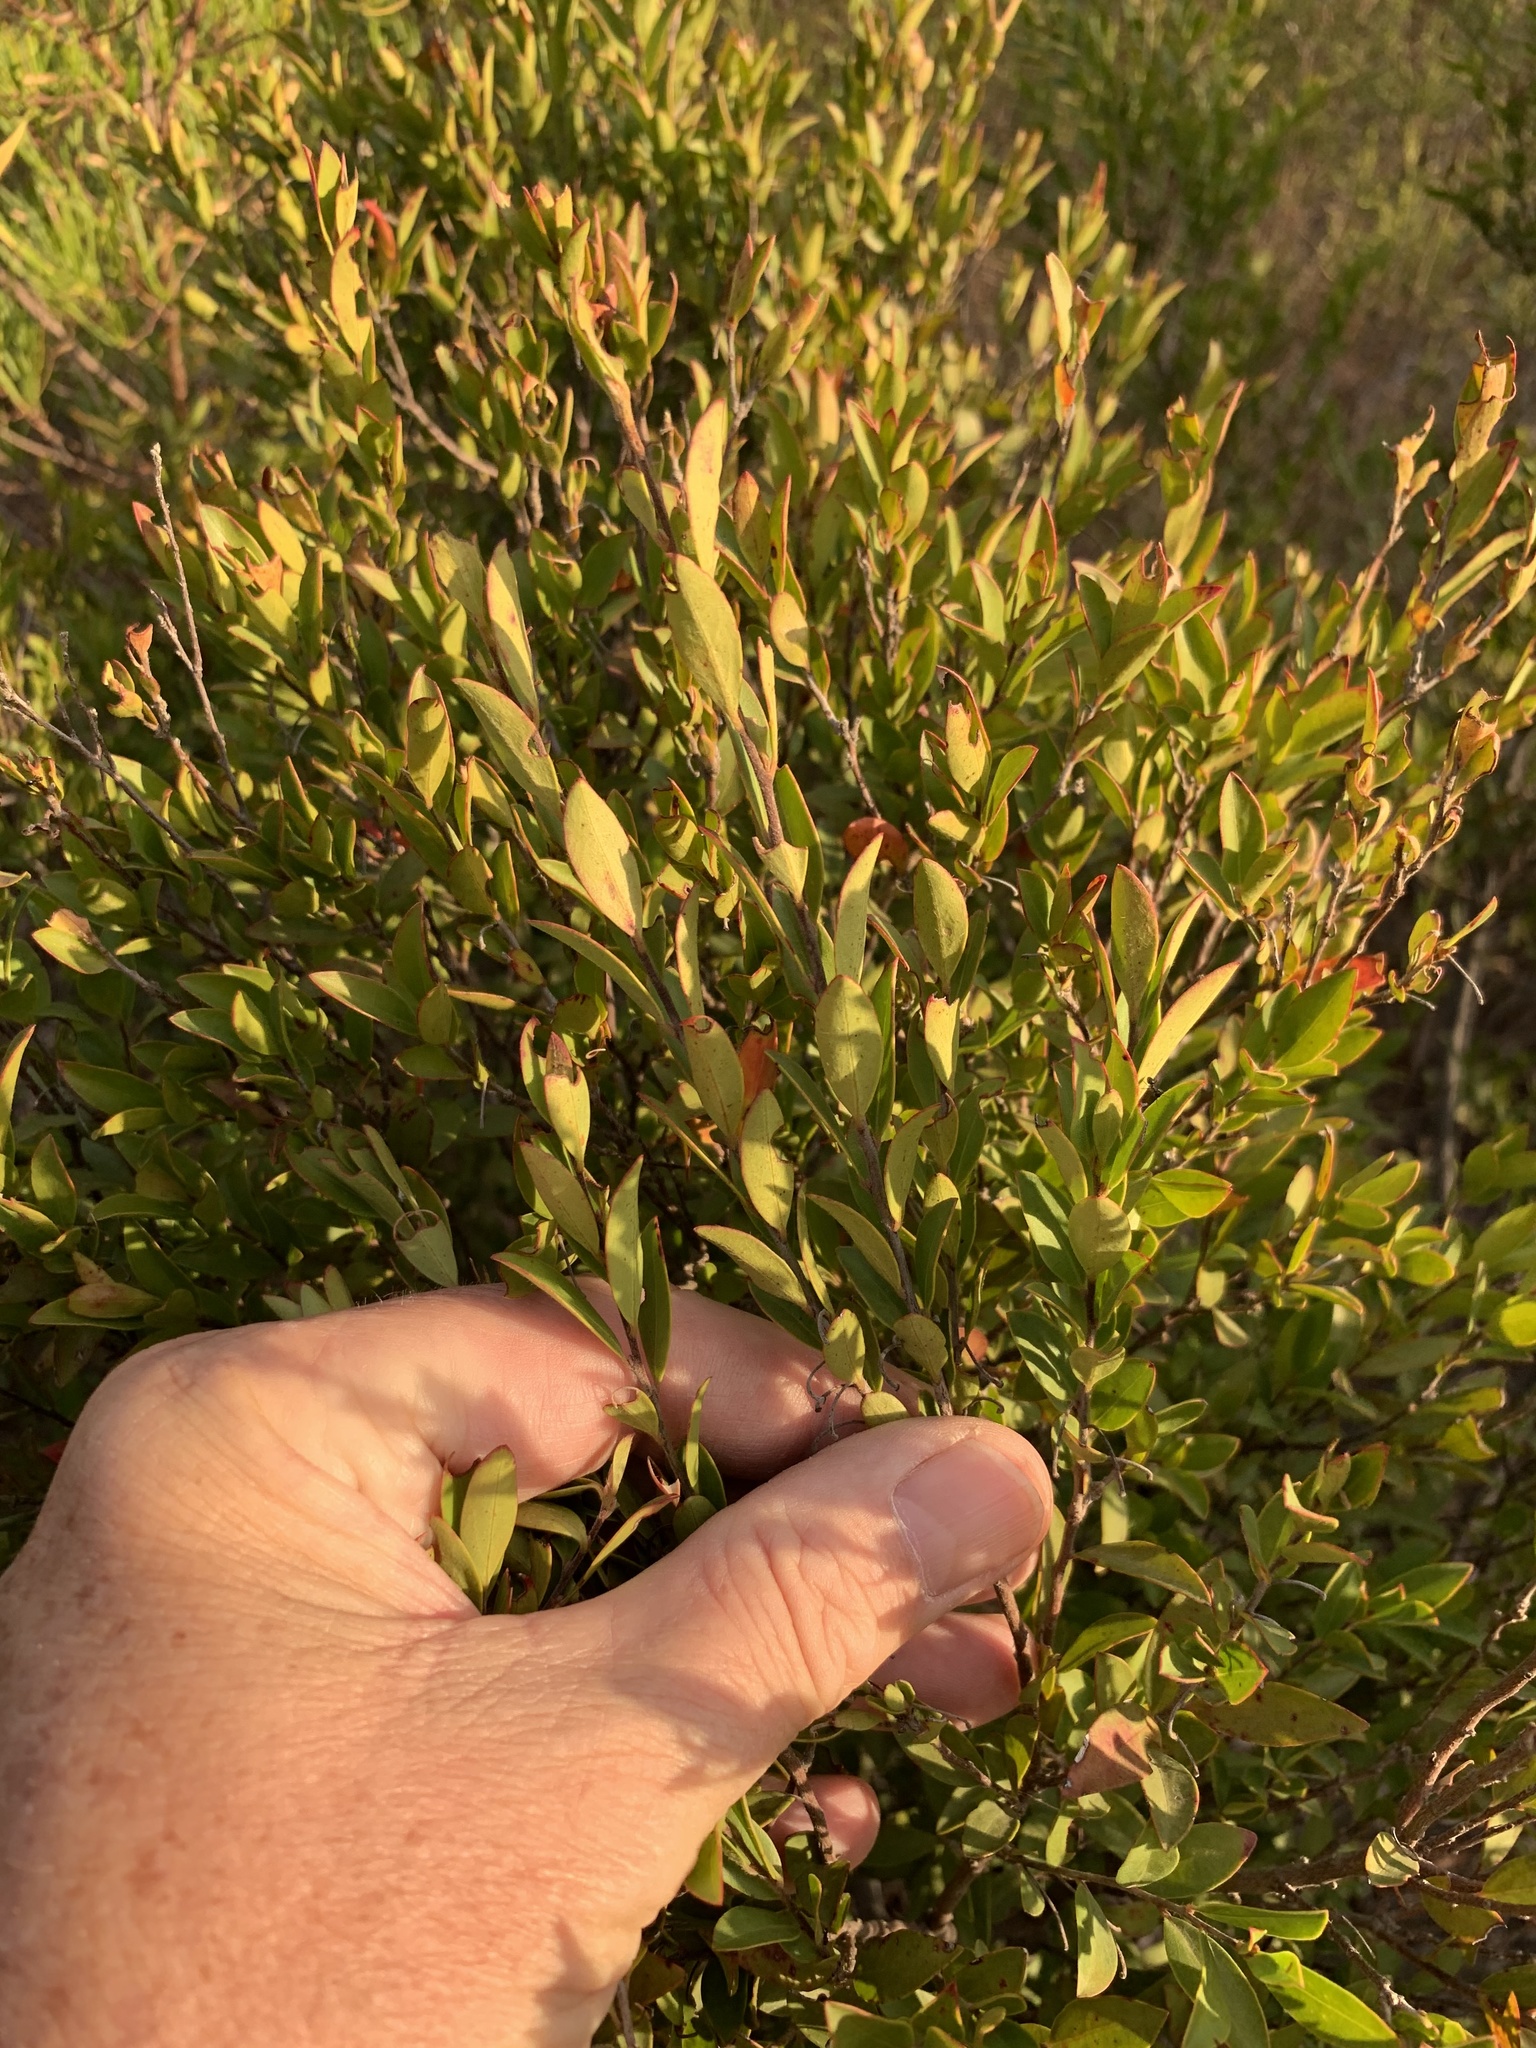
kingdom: Plantae
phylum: Tracheophyta
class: Magnoliopsida
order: Ericales
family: Ebenaceae
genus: Diospyros
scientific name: Diospyros glabra
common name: Fynbos star apple
